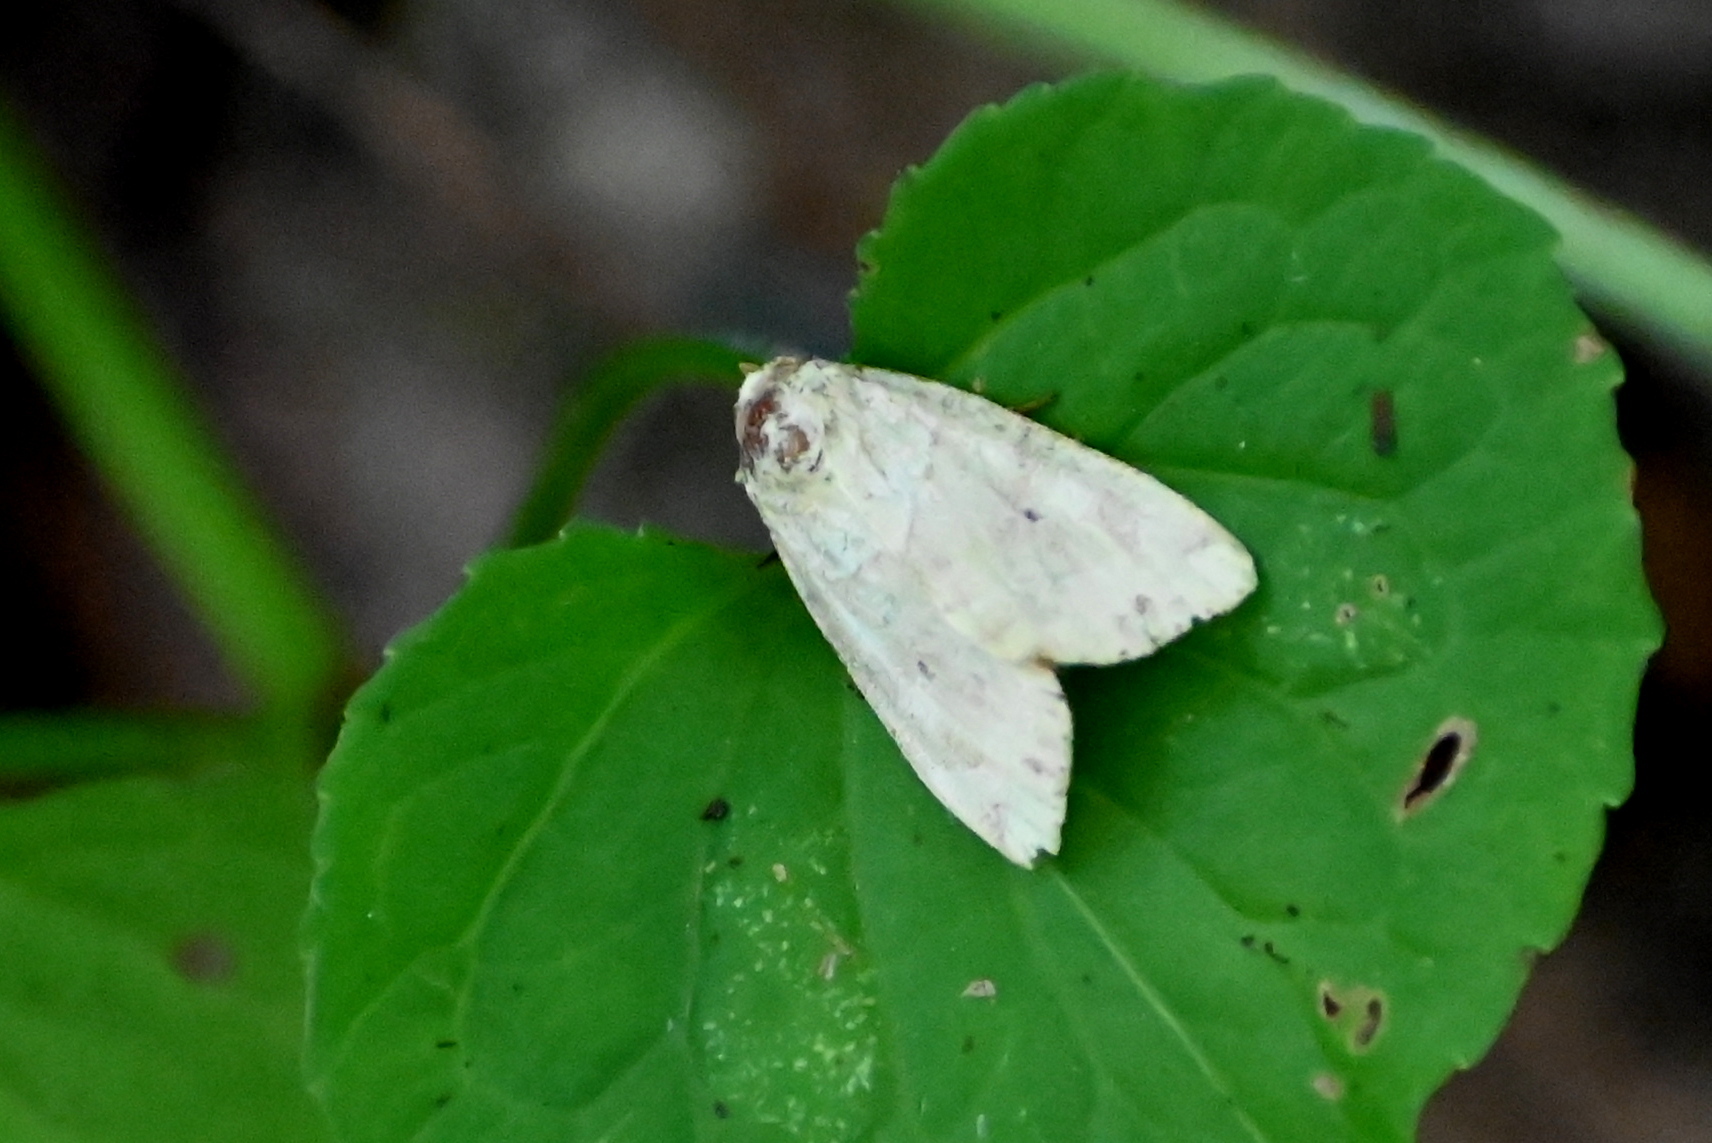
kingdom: Animalia
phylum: Arthropoda
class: Insecta
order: Lepidoptera
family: Noctuidae
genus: Cosmia
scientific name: Cosmia trapezina
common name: Dun-bar
